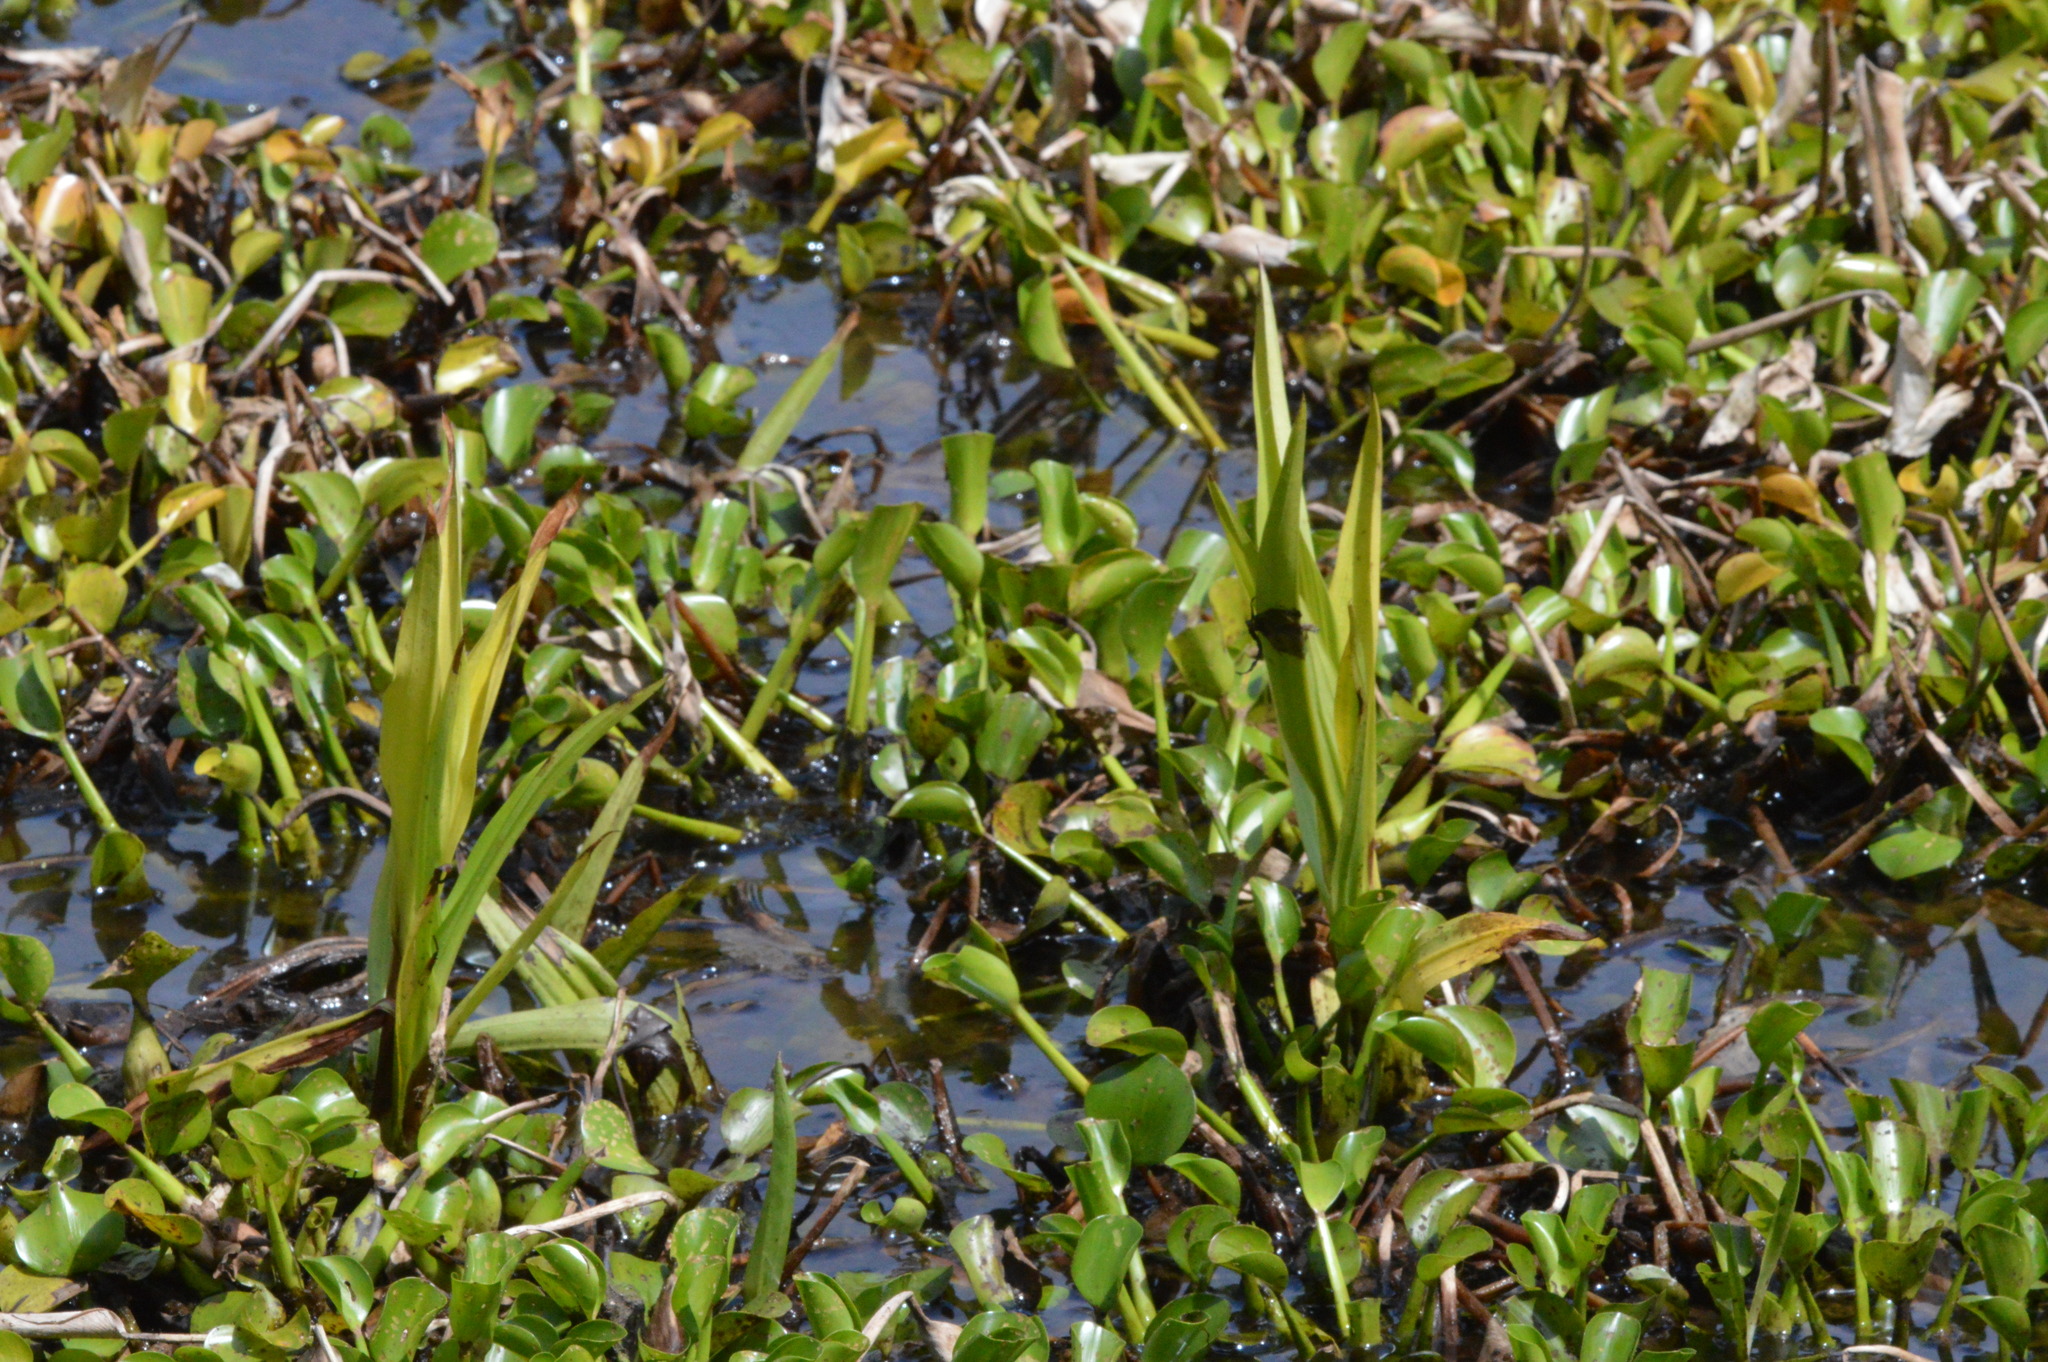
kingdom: Plantae
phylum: Tracheophyta
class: Liliopsida
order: Asparagales
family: Orchidaceae
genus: Habenaria
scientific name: Habenaria repens
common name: Water orchid
